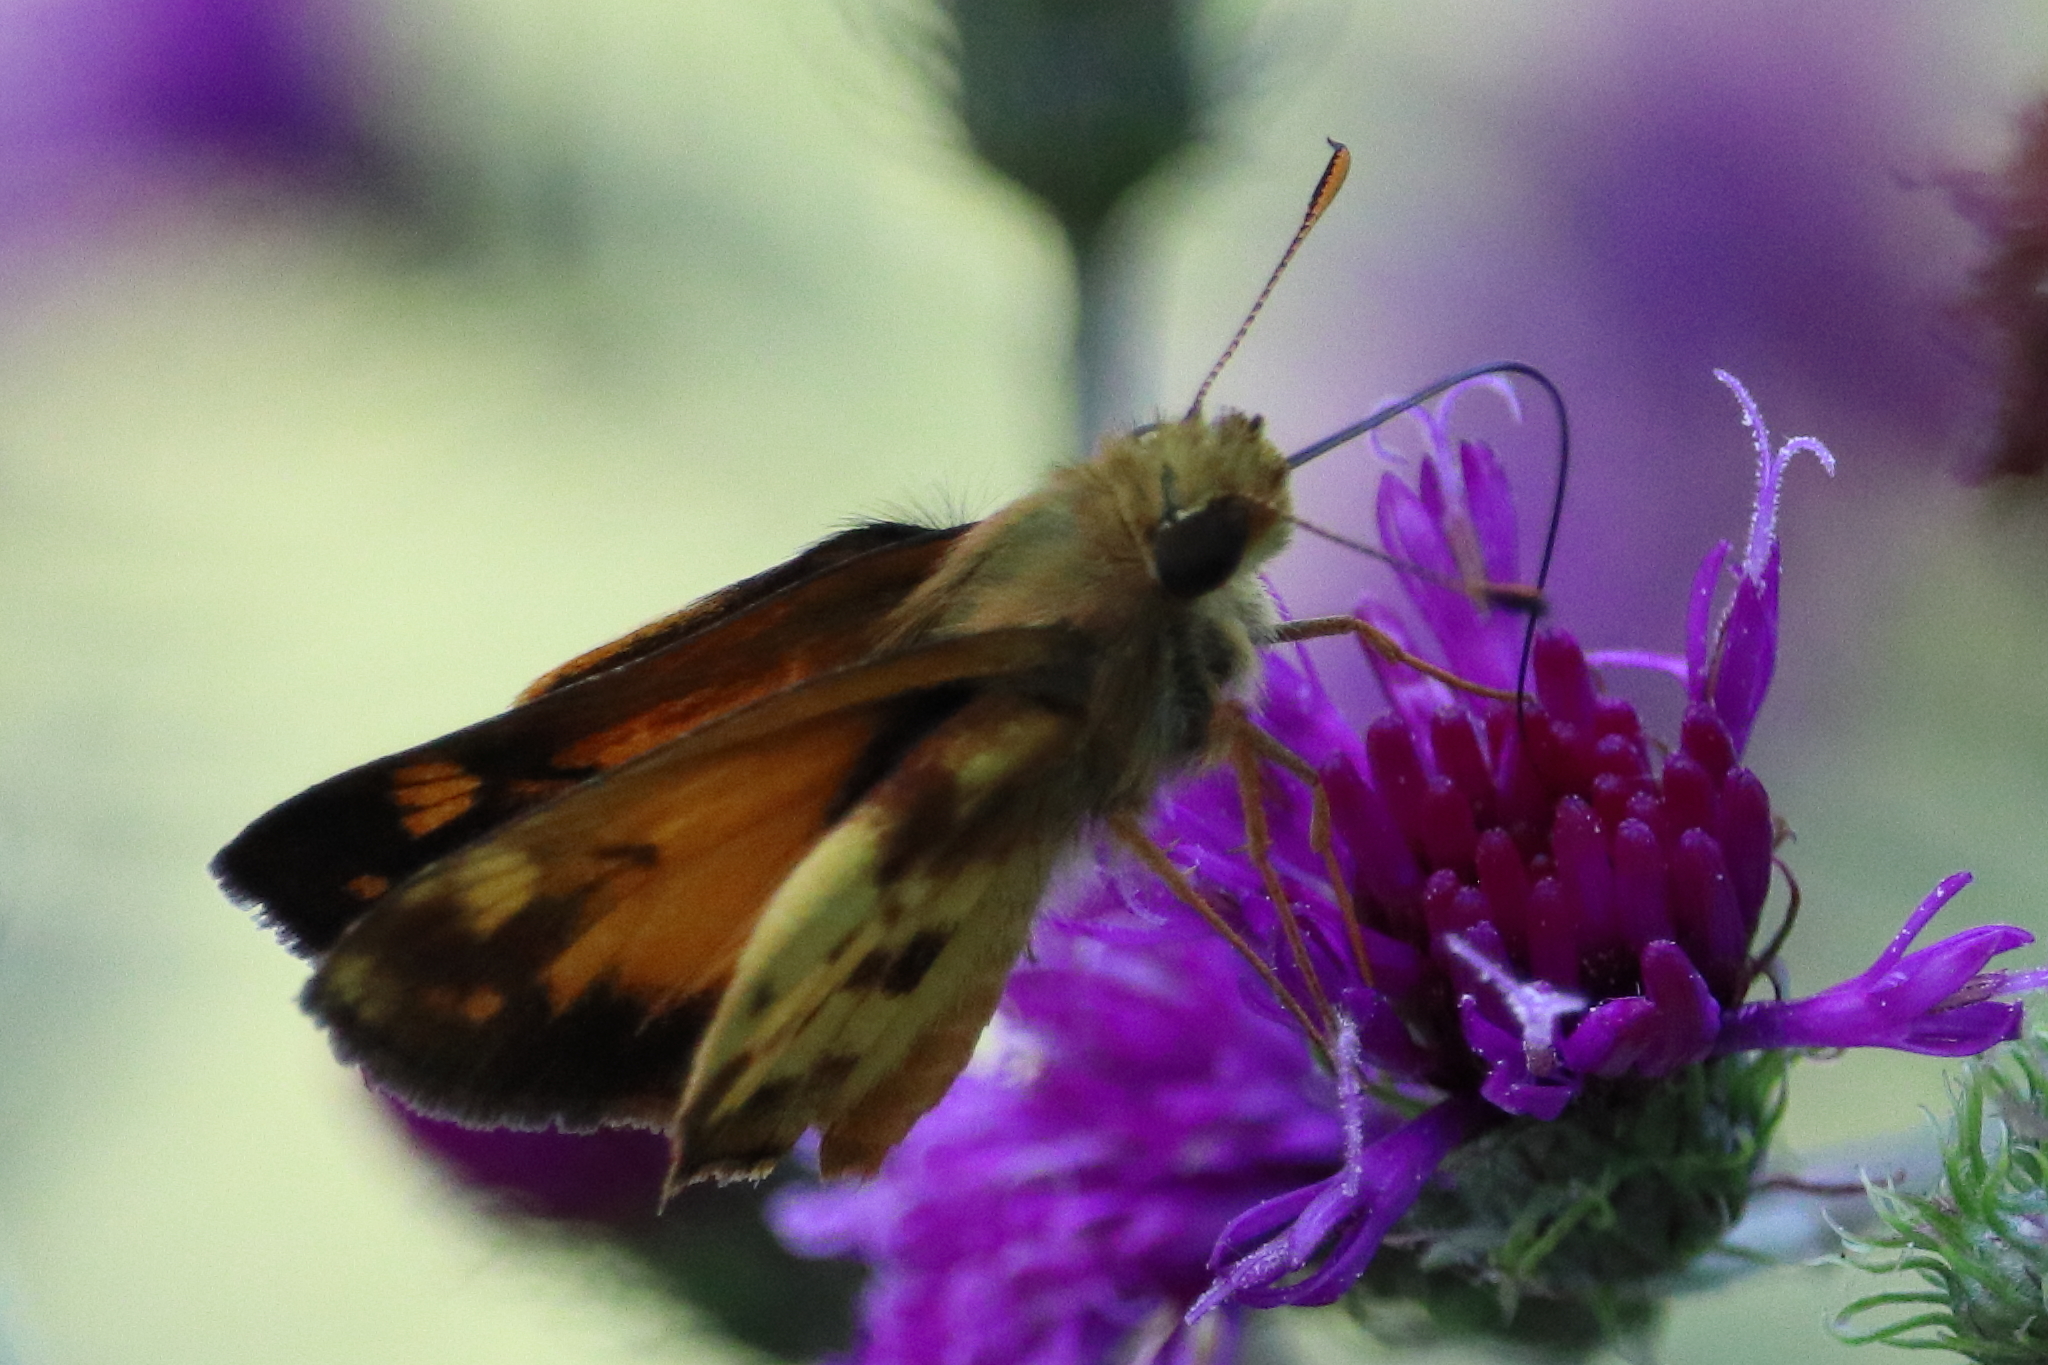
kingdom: Animalia
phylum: Arthropoda
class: Insecta
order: Lepidoptera
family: Hesperiidae
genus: Lon
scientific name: Lon zabulon
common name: Zabulon skipper
